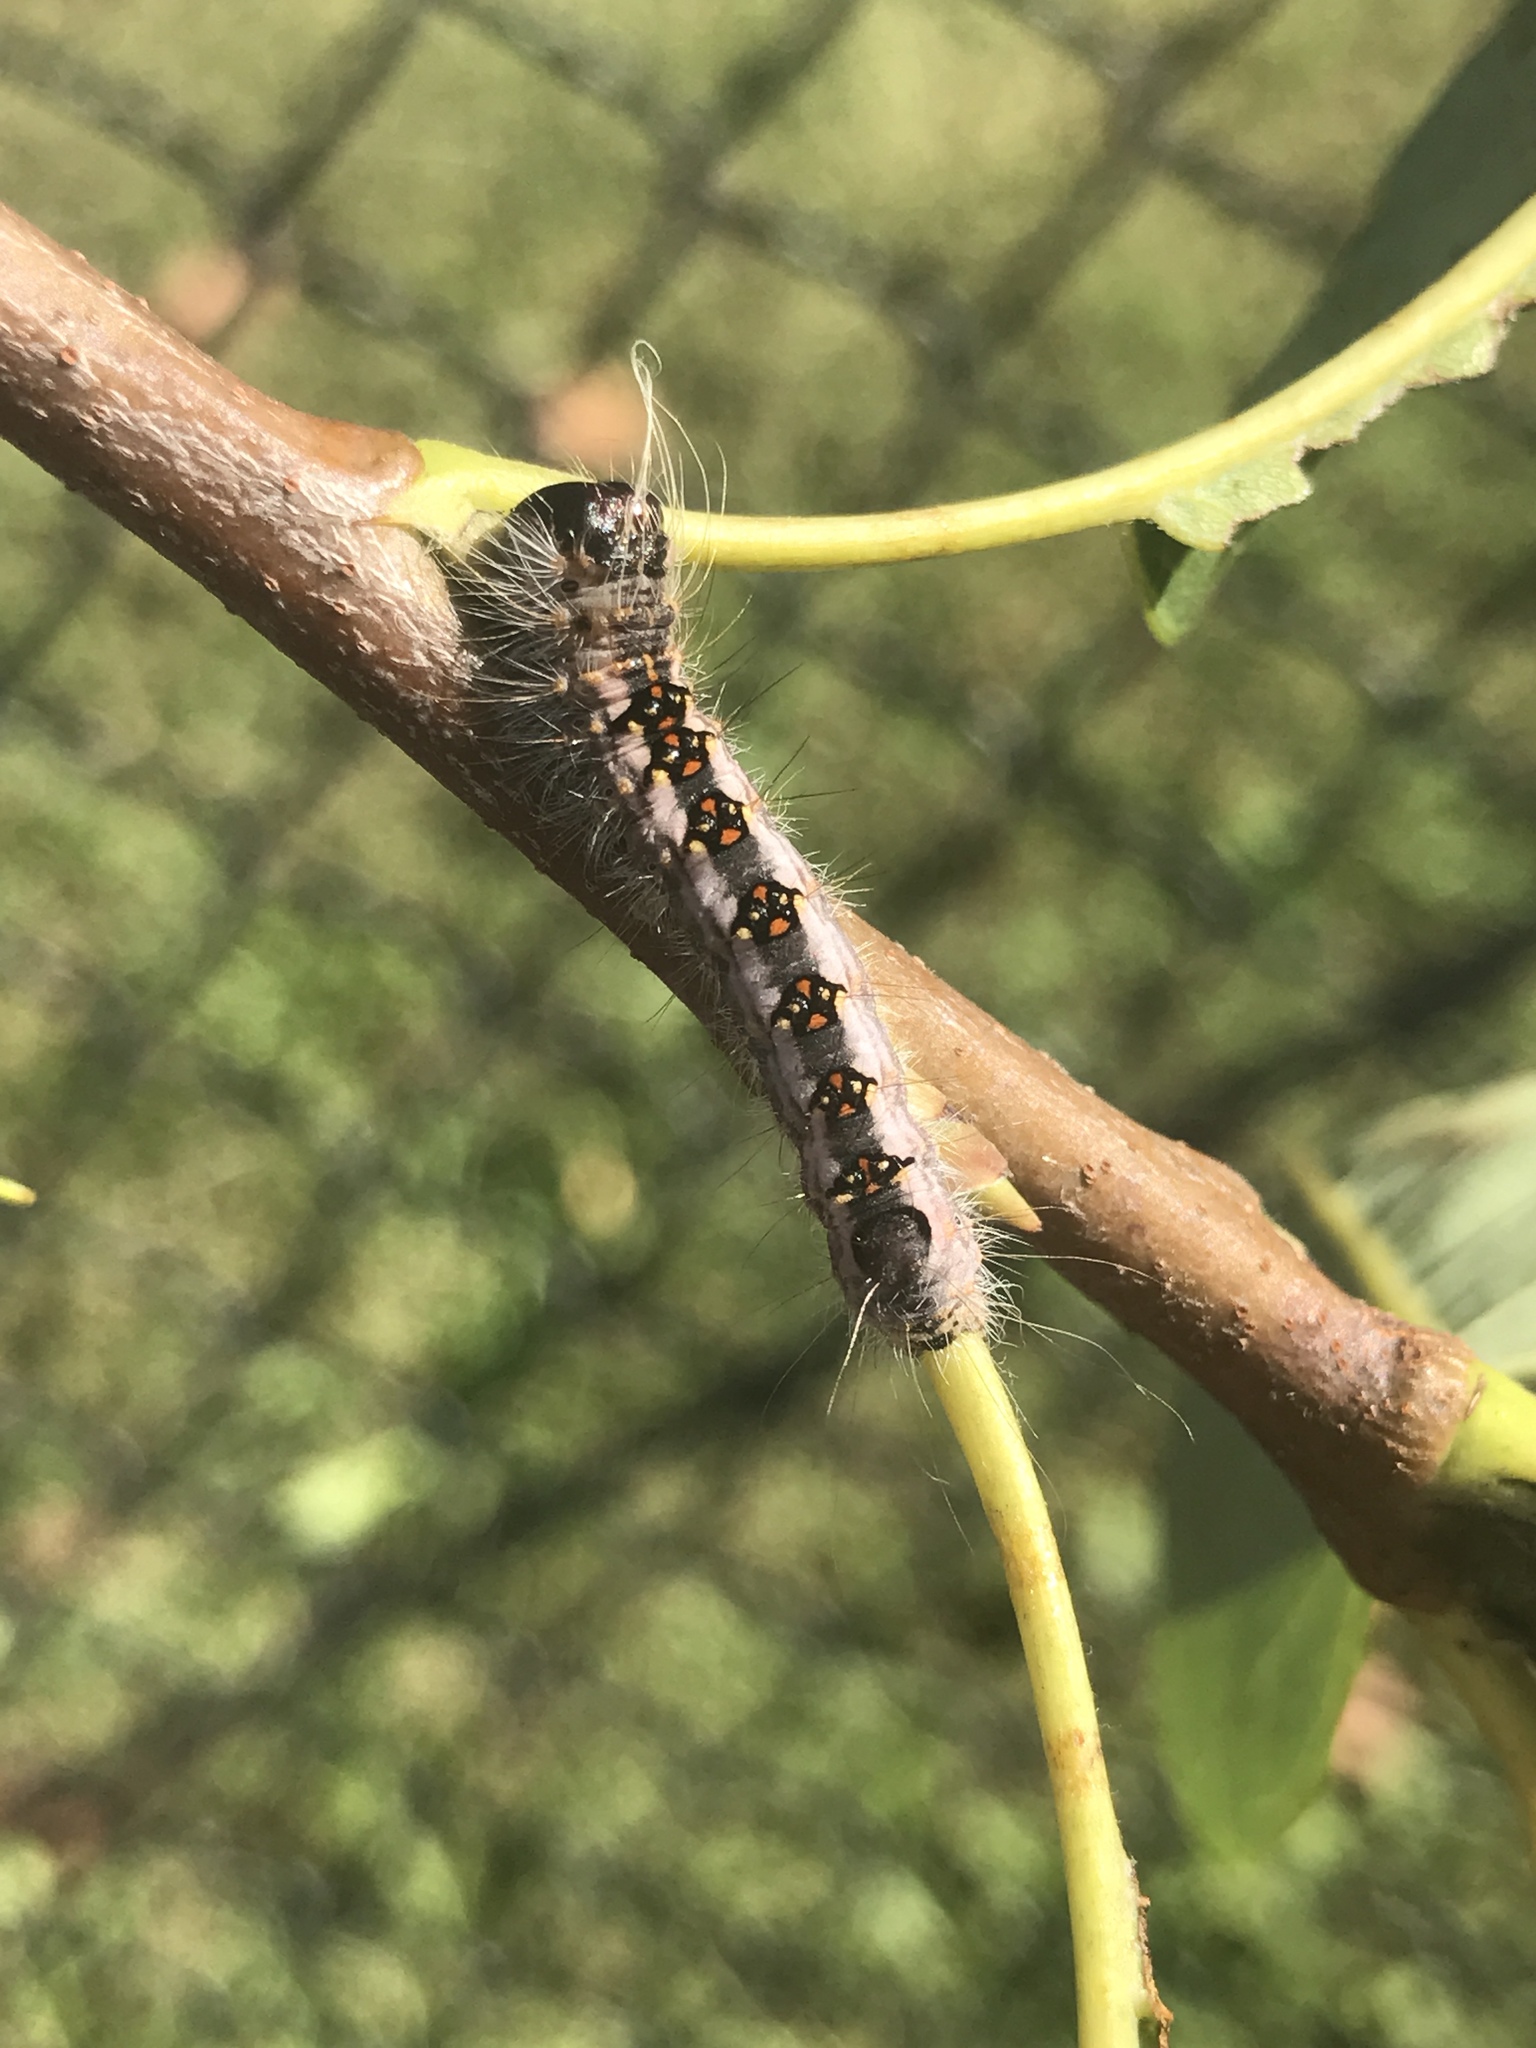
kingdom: Animalia
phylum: Arthropoda
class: Insecta
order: Lepidoptera
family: Noctuidae
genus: Acronicta
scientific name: Acronicta interrupta
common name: Interrupted dagger
